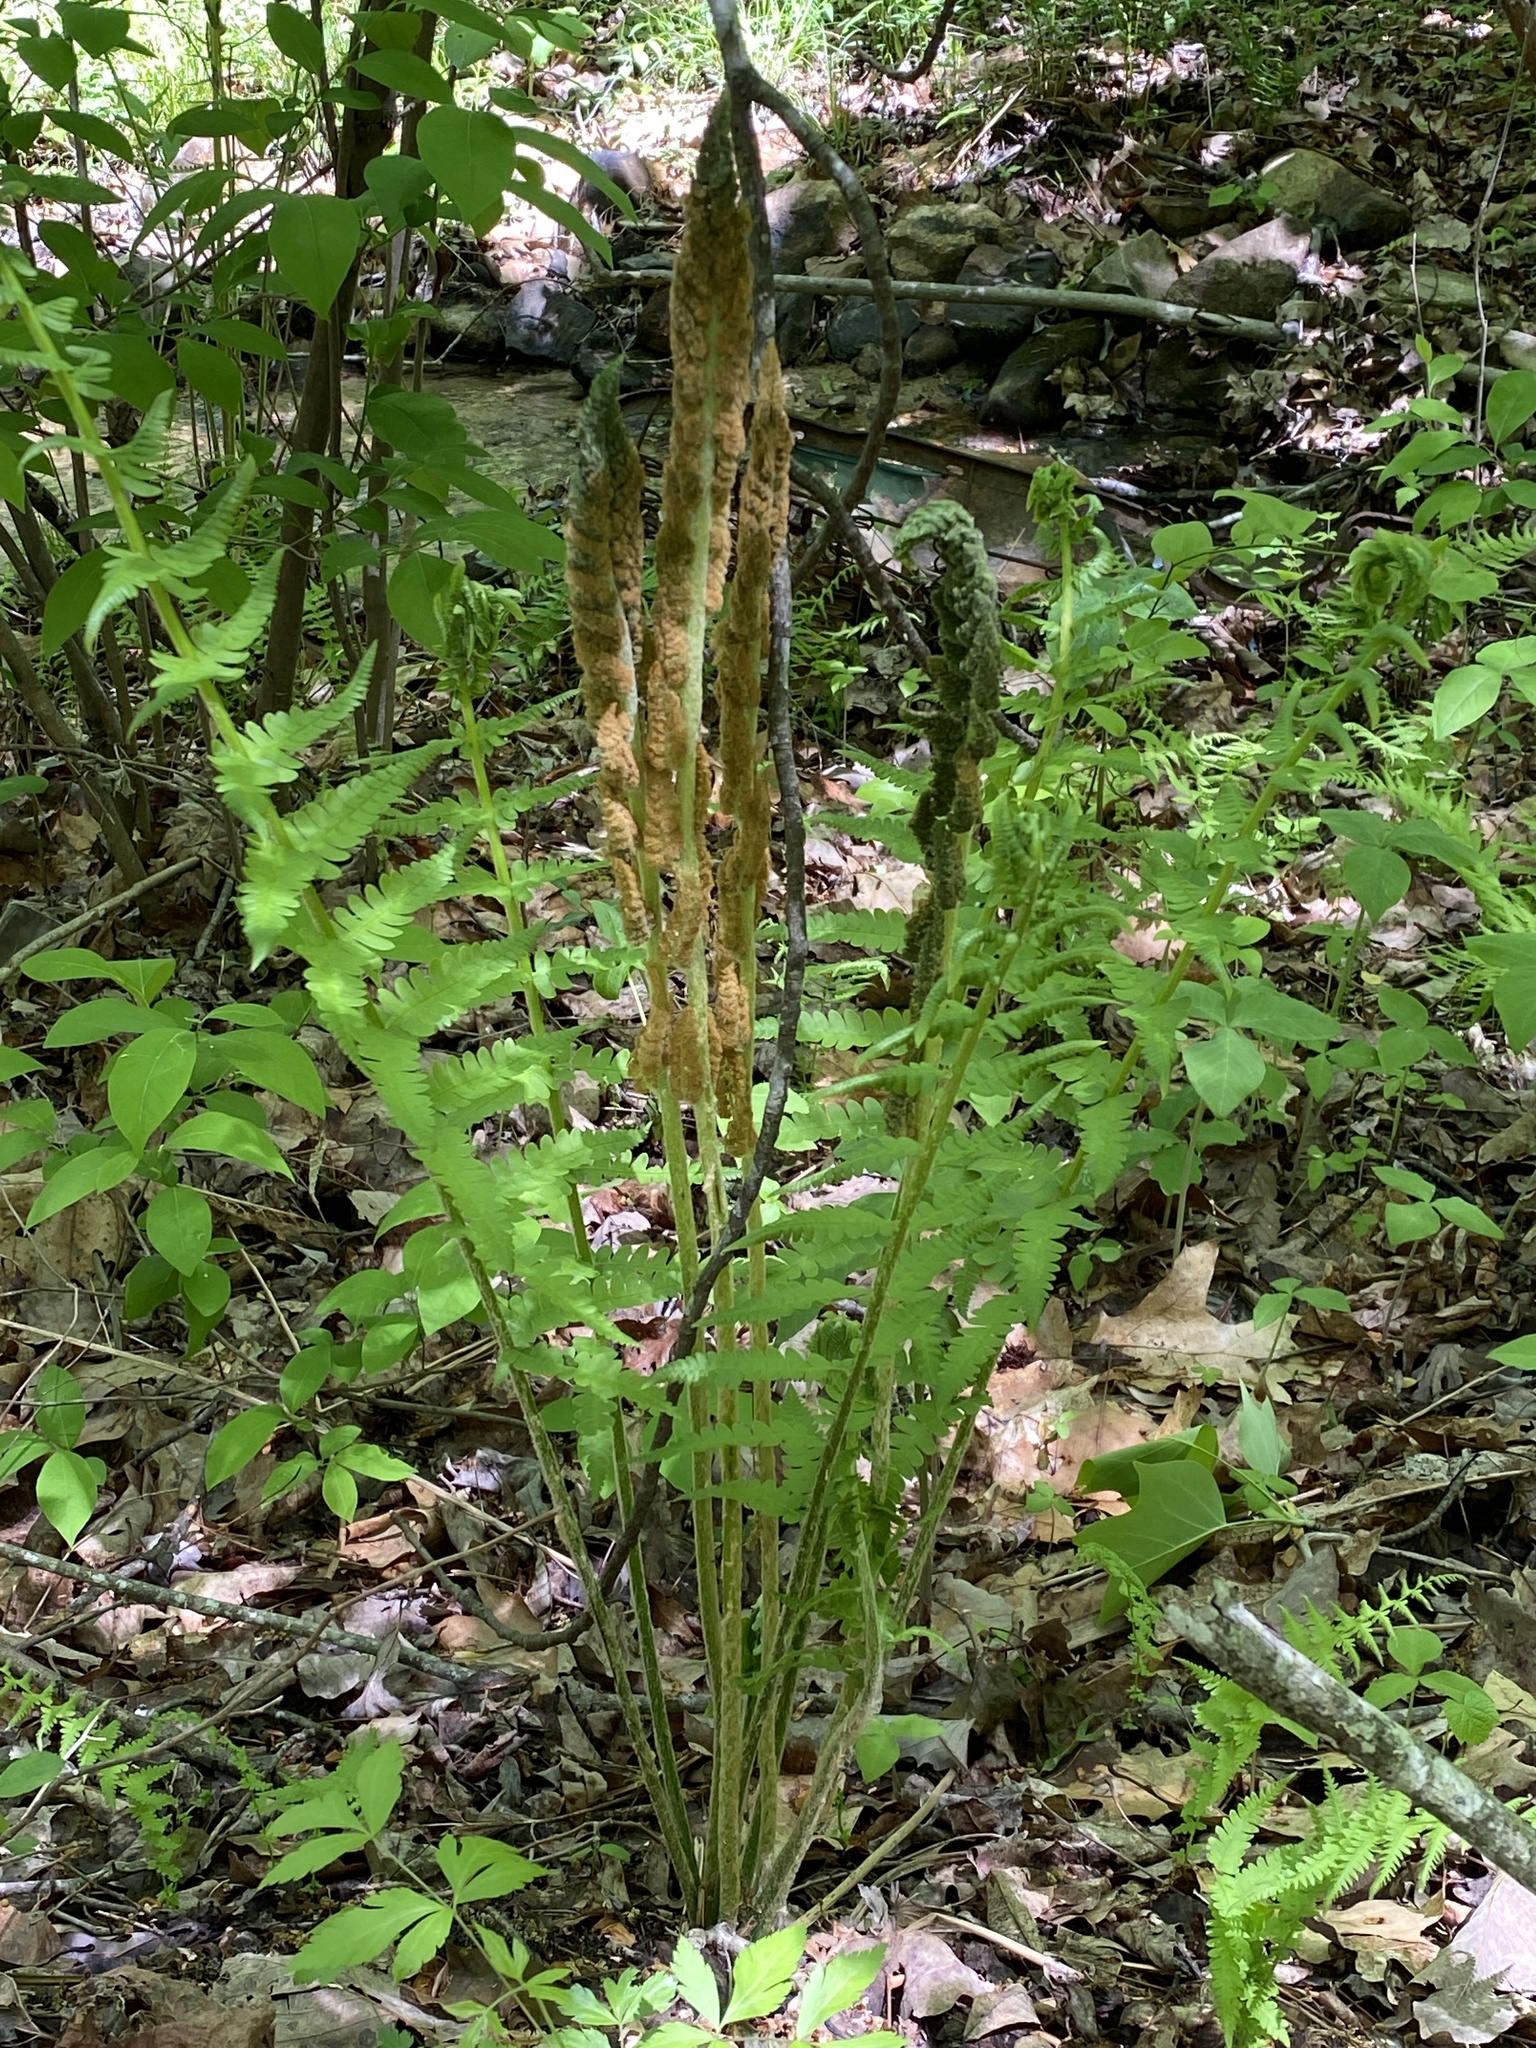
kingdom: Plantae
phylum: Tracheophyta
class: Polypodiopsida
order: Osmundales
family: Osmundaceae
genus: Osmundastrum
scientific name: Osmundastrum cinnamomeum
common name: Cinnamon fern
